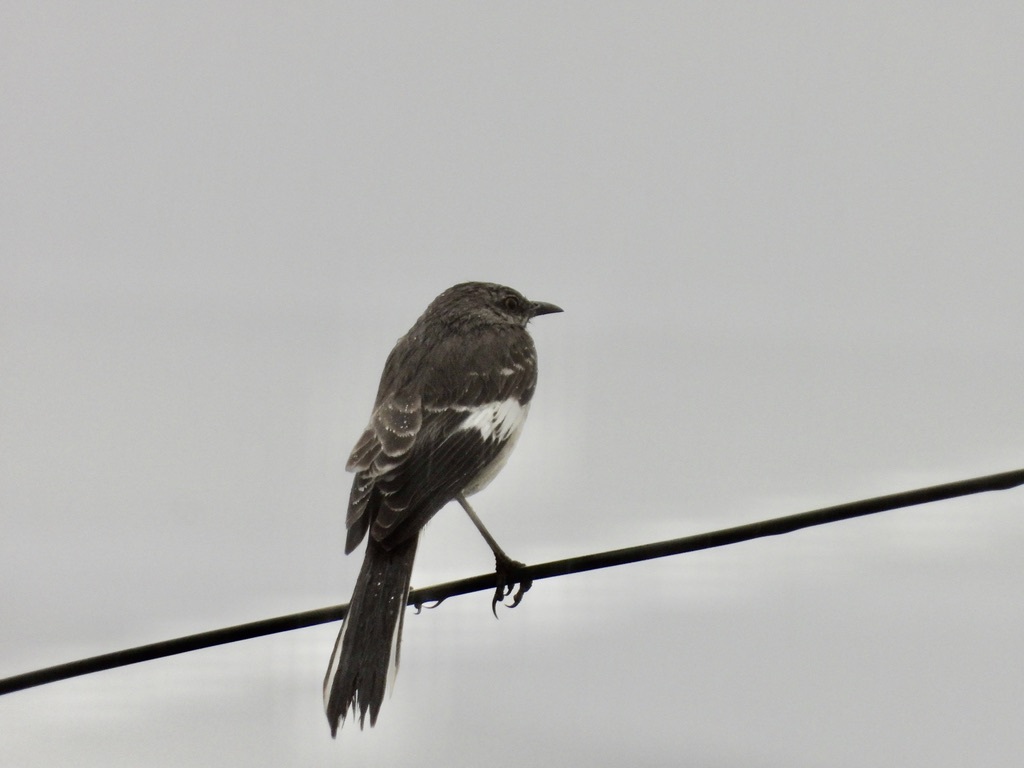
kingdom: Animalia
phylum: Chordata
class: Aves
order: Passeriformes
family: Mimidae
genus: Mimus
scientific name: Mimus polyglottos
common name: Northern mockingbird
